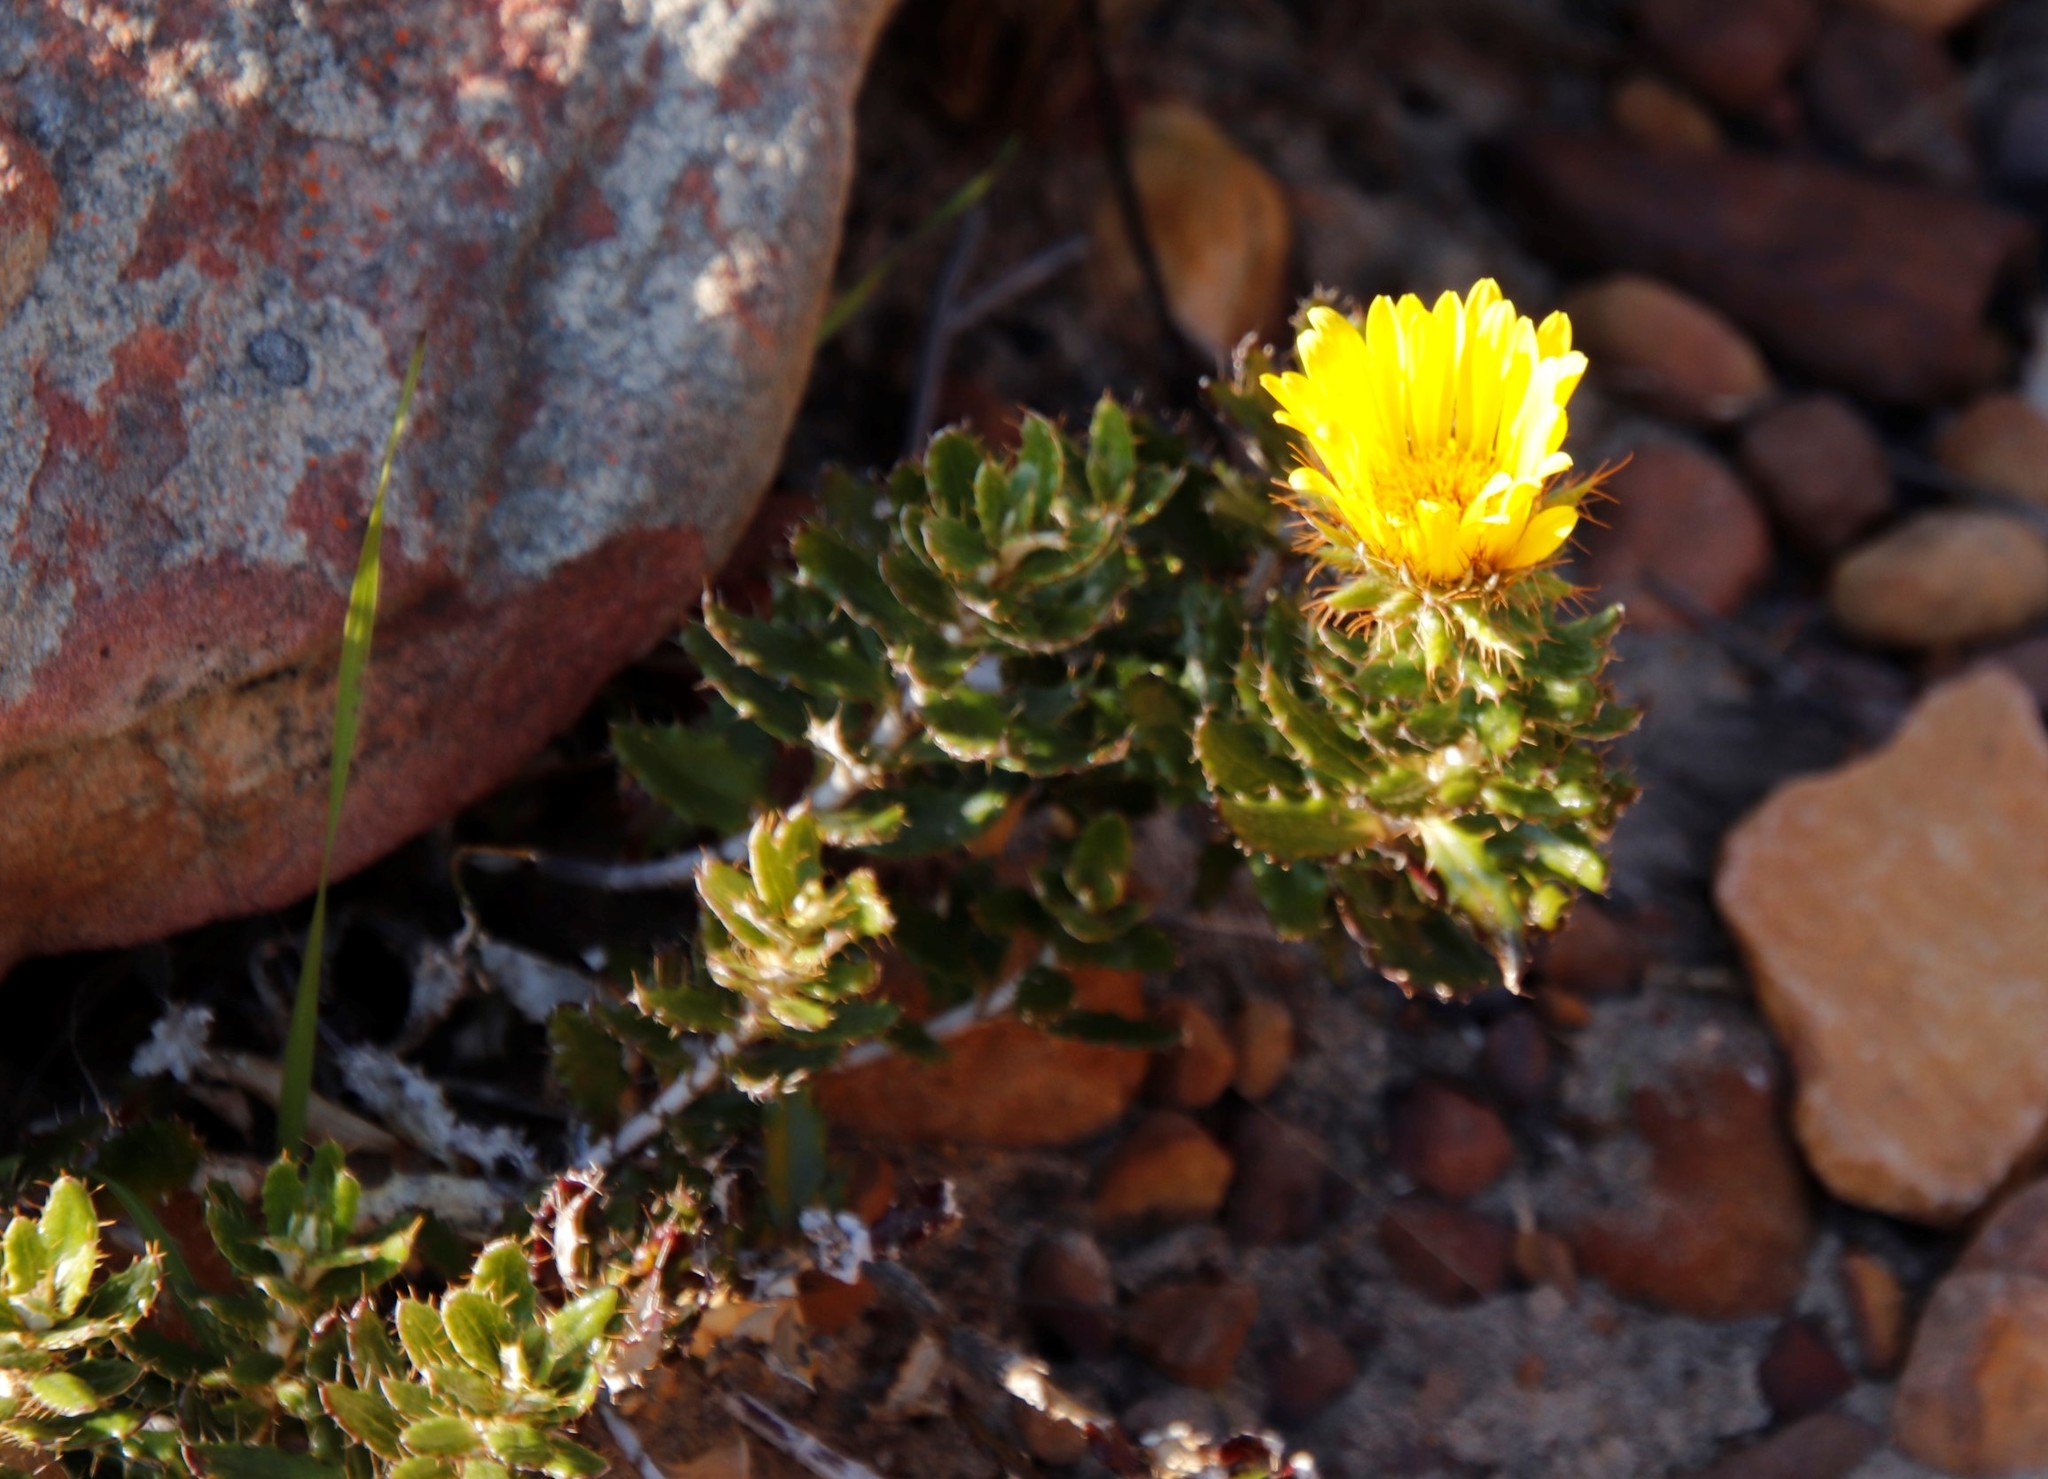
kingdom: Plantae
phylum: Tracheophyta
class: Magnoliopsida
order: Asterales
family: Asteraceae
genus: Berkheya
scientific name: Berkheya barbata
